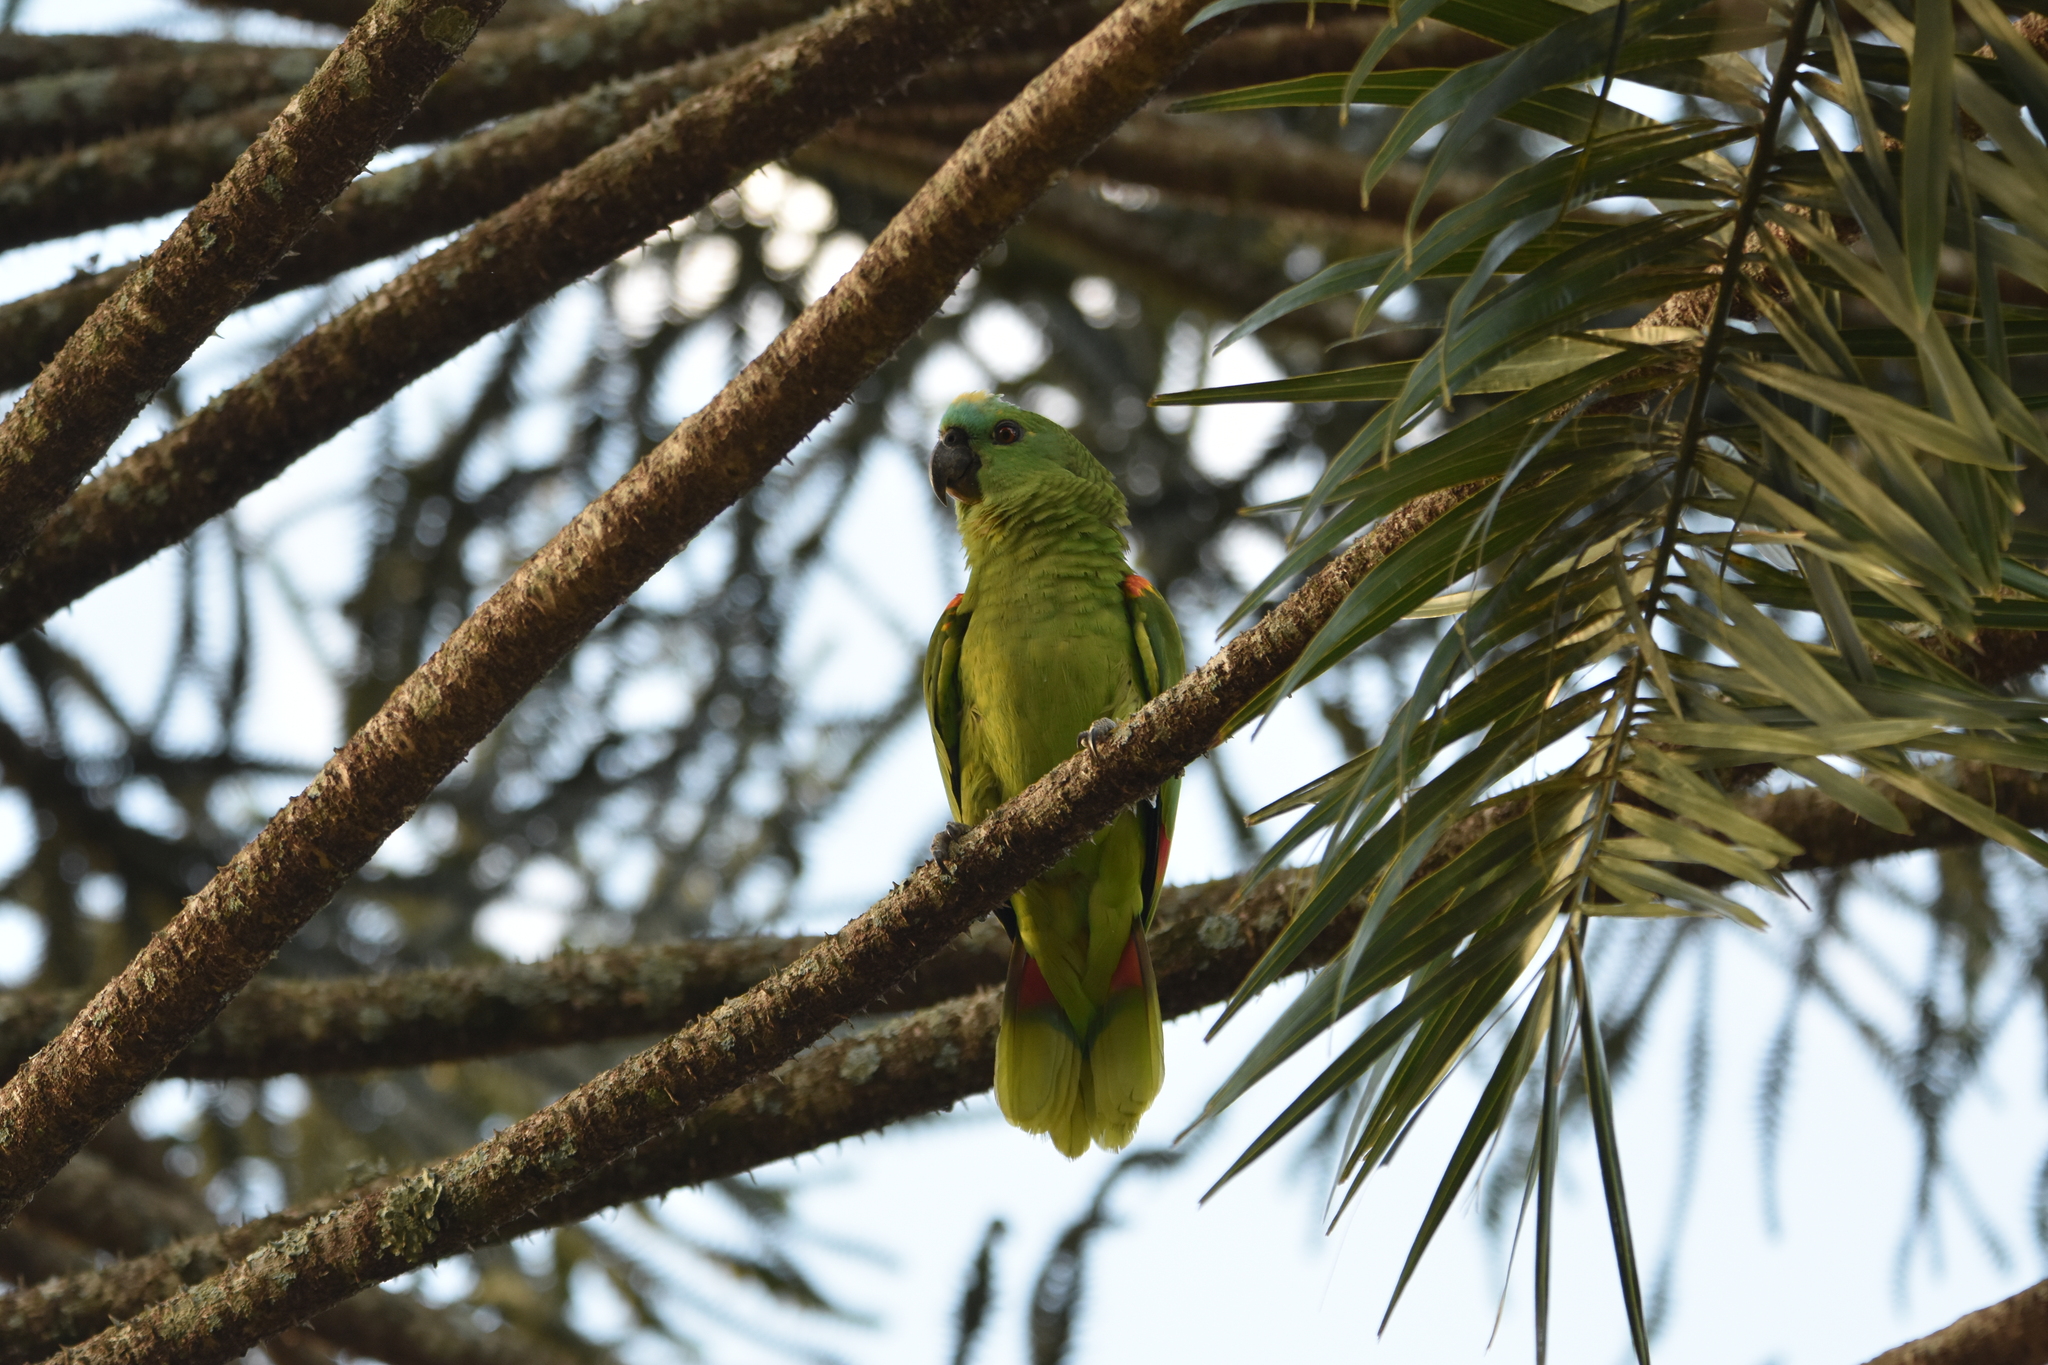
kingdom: Animalia
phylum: Chordata
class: Aves
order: Psittaciformes
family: Psittacidae
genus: Amazona
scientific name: Amazona aestiva
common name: Turquoise-fronted amazon
